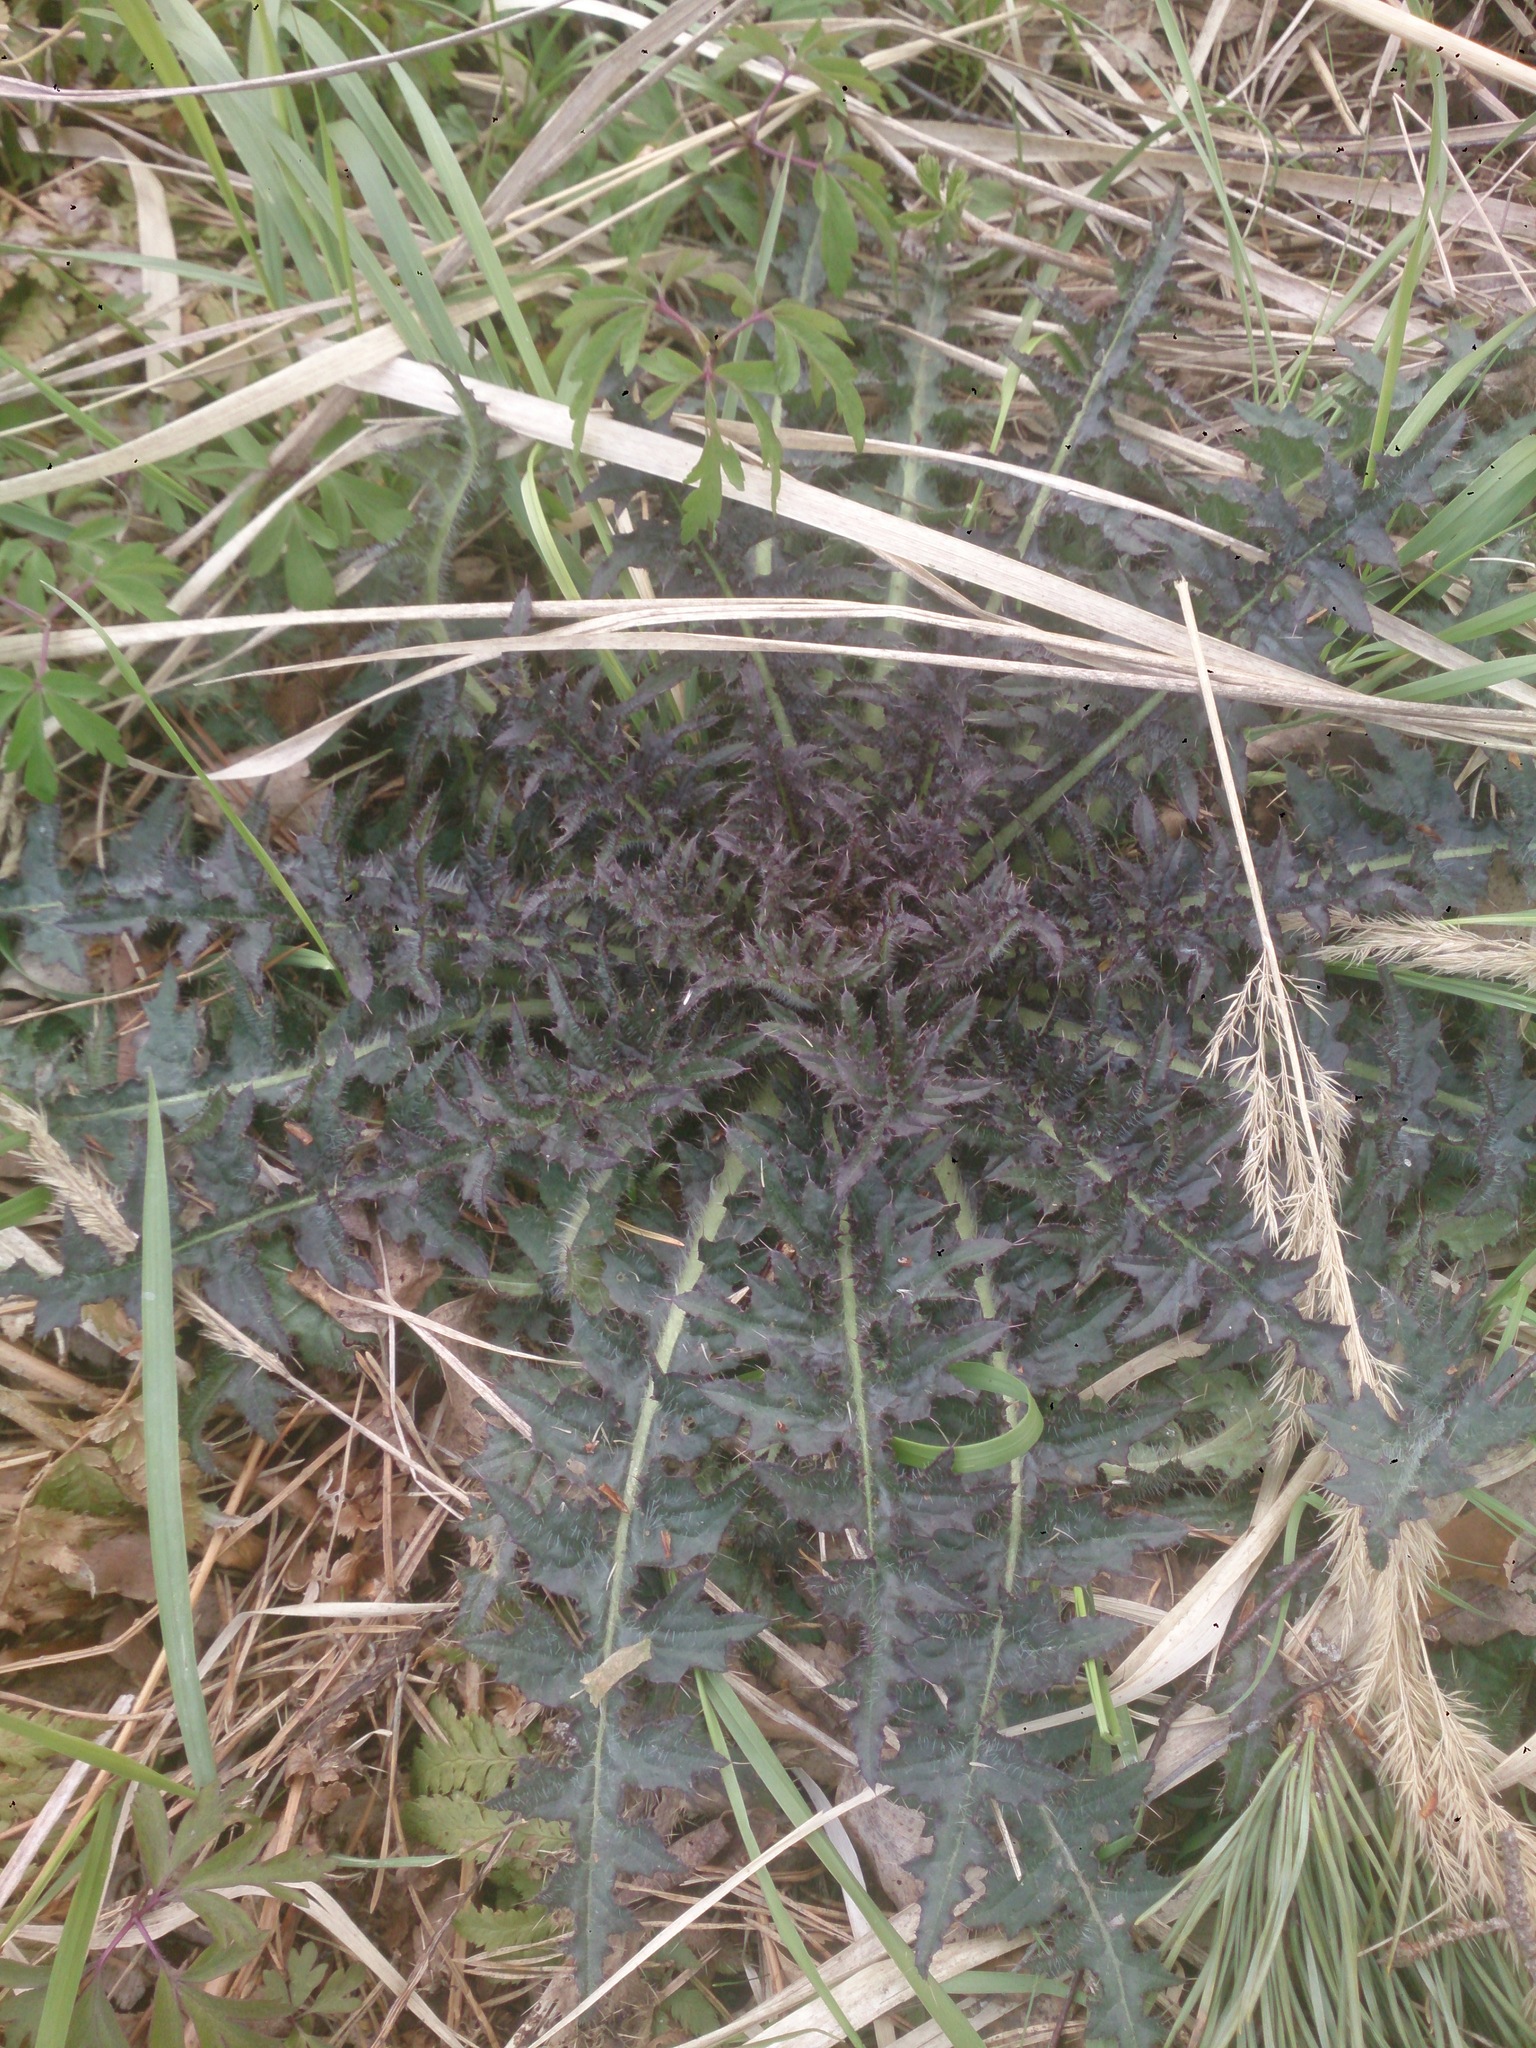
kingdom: Plantae
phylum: Tracheophyta
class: Magnoliopsida
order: Asterales
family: Asteraceae
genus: Cirsium
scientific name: Cirsium palustre
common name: Marsh thistle
